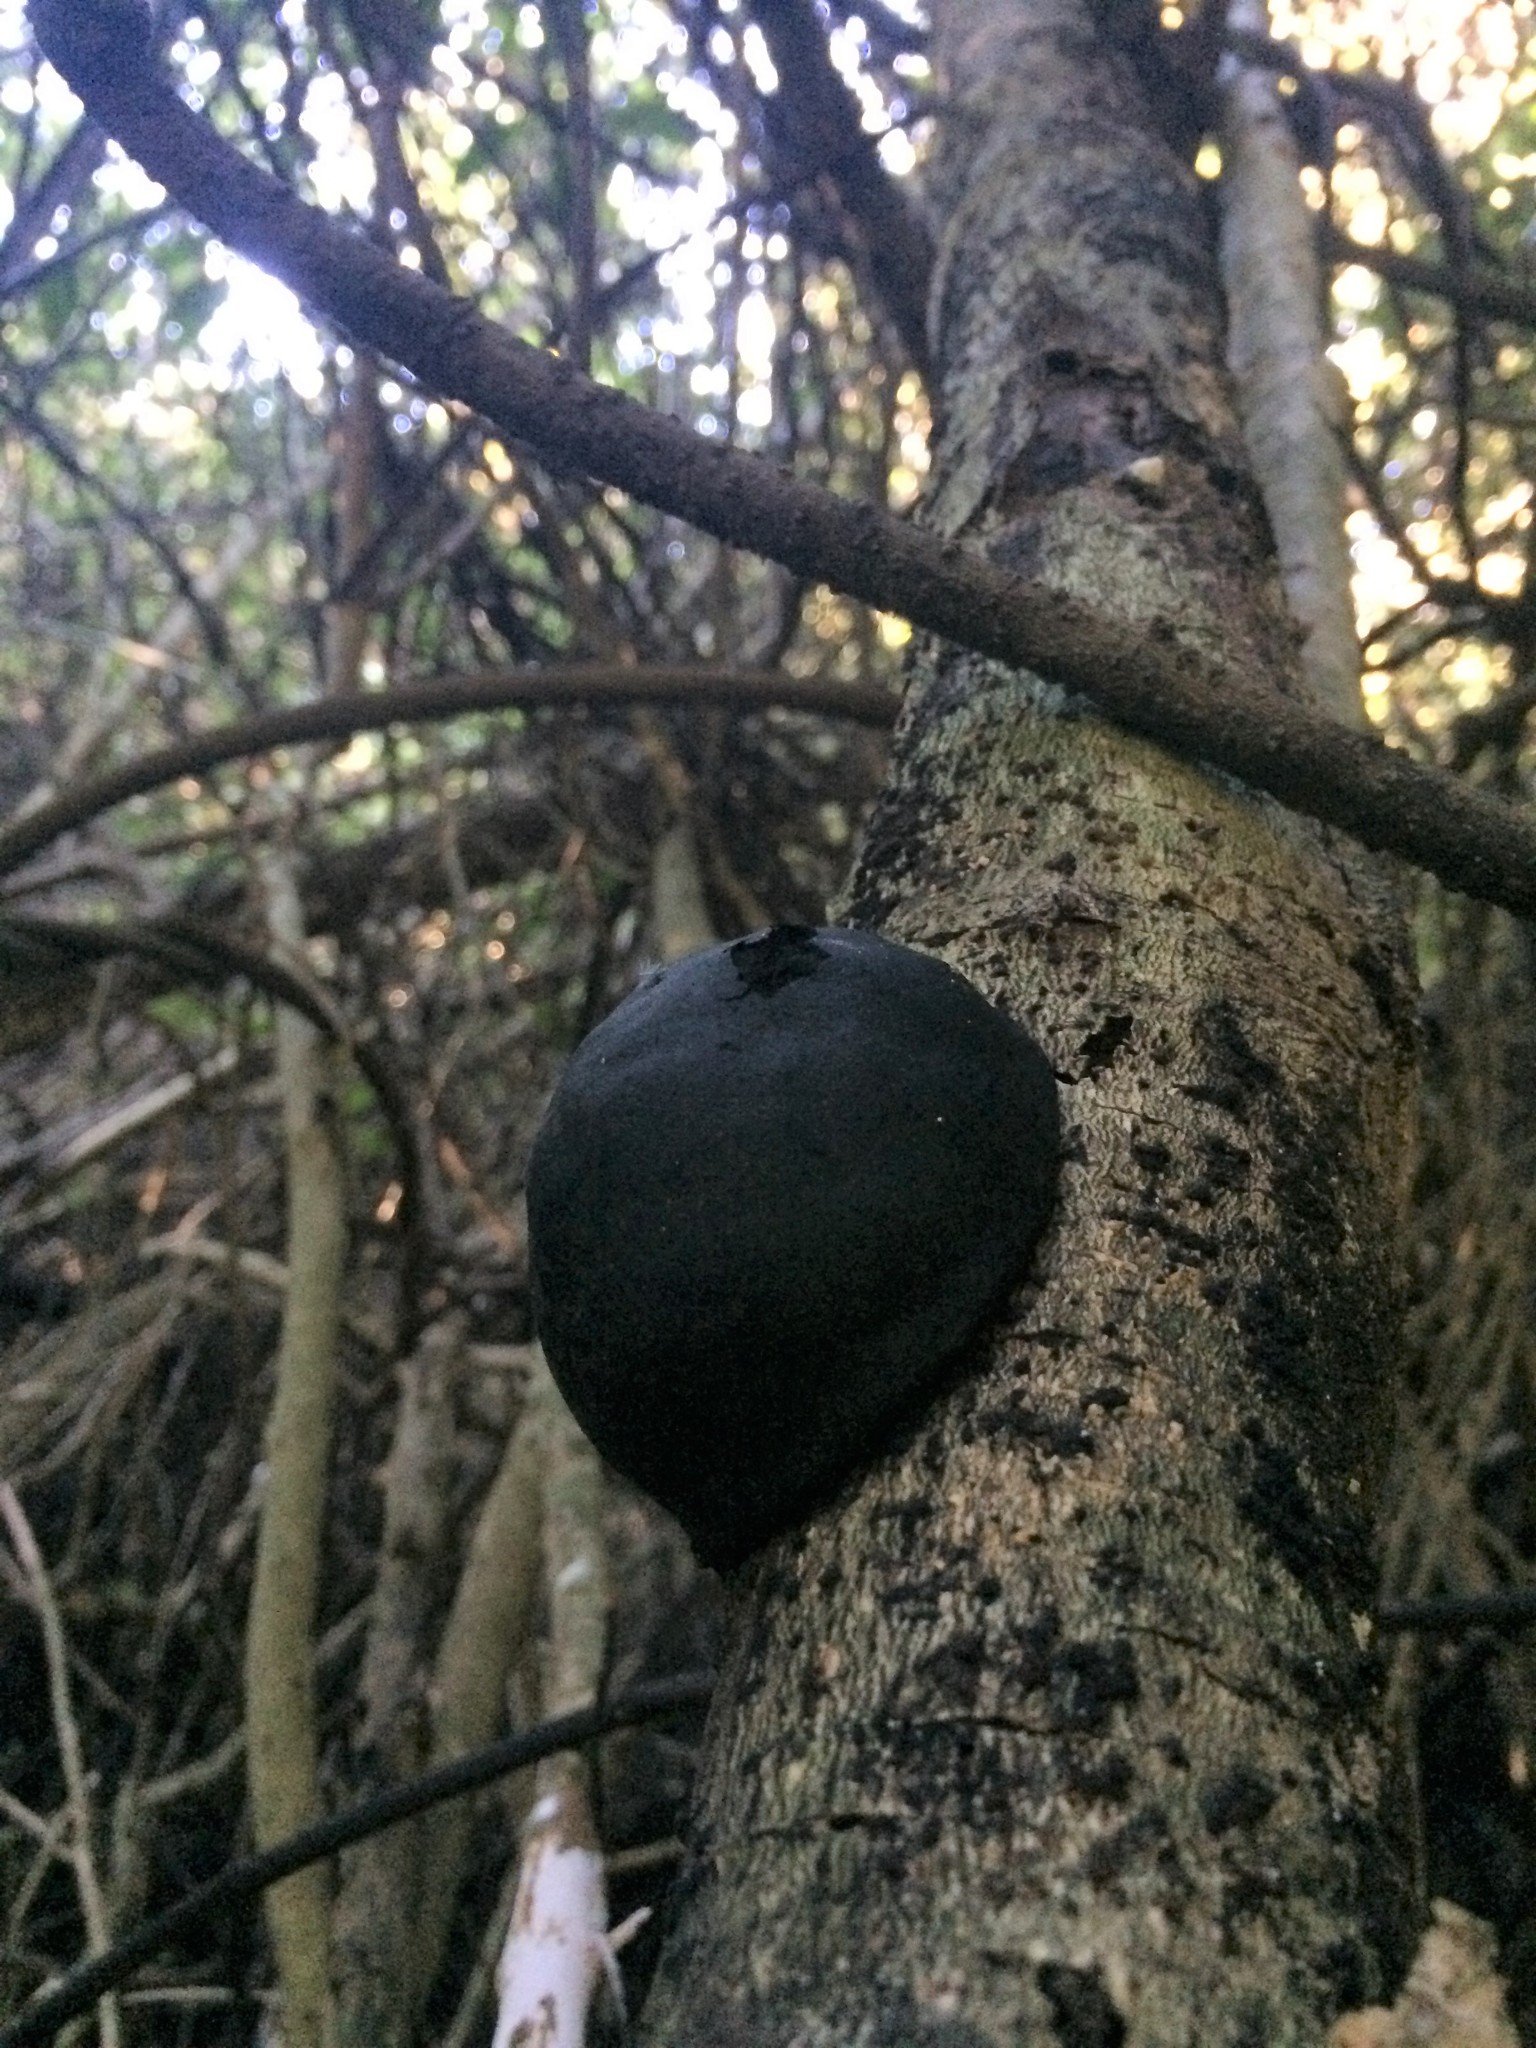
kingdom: Fungi
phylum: Ascomycota
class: Sordariomycetes
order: Xylariales
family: Hypoxylaceae
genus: Daldinia
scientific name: Daldinia
